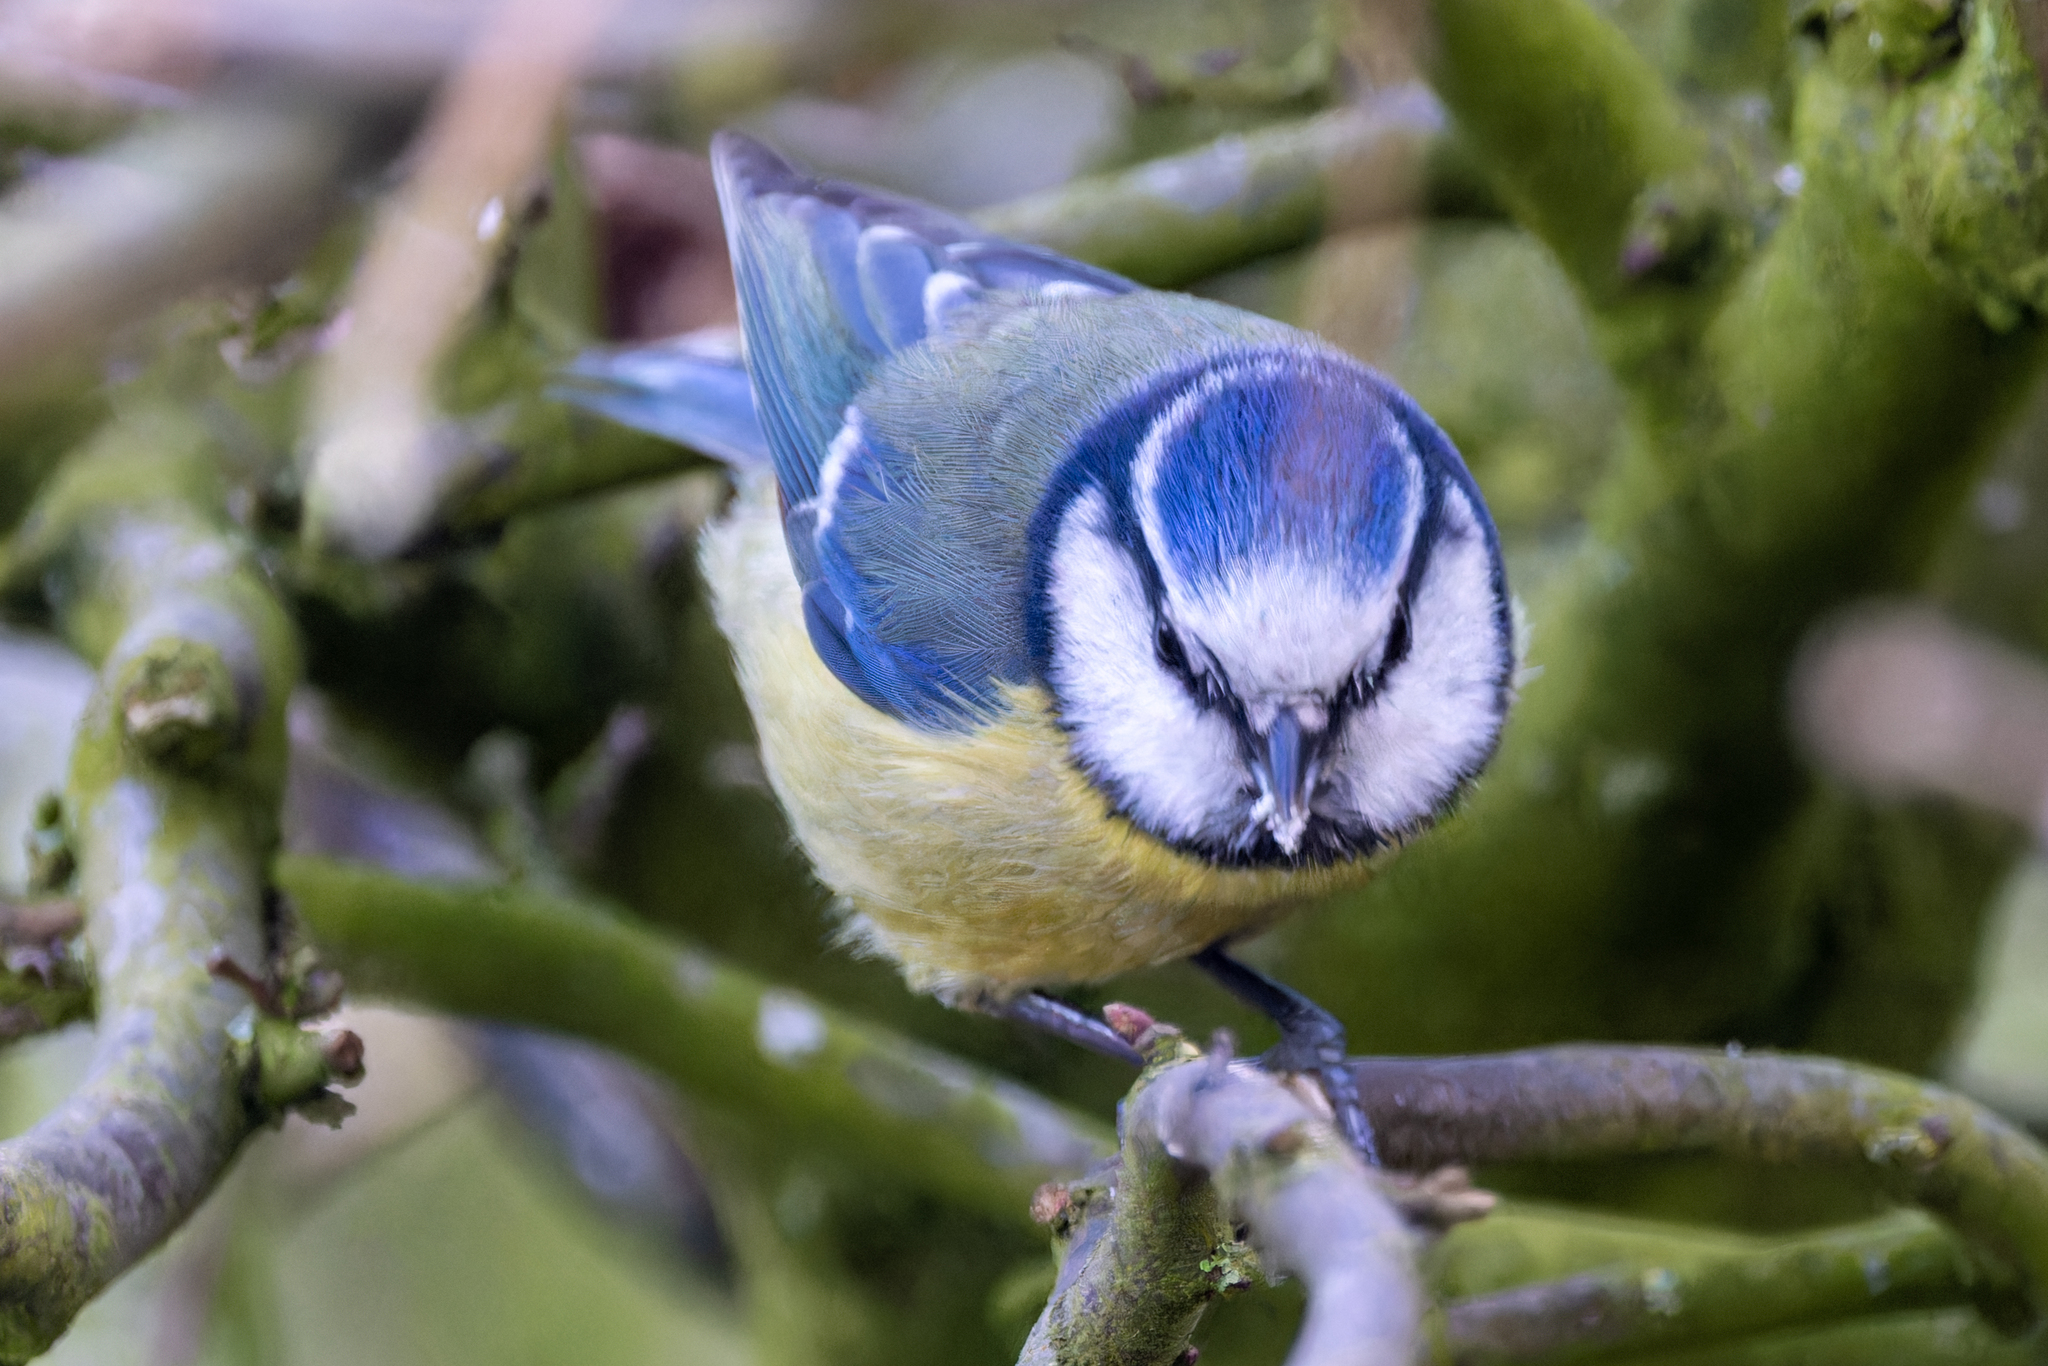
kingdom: Animalia
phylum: Chordata
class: Aves
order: Passeriformes
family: Paridae
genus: Cyanistes
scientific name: Cyanistes caeruleus
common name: Eurasian blue tit
